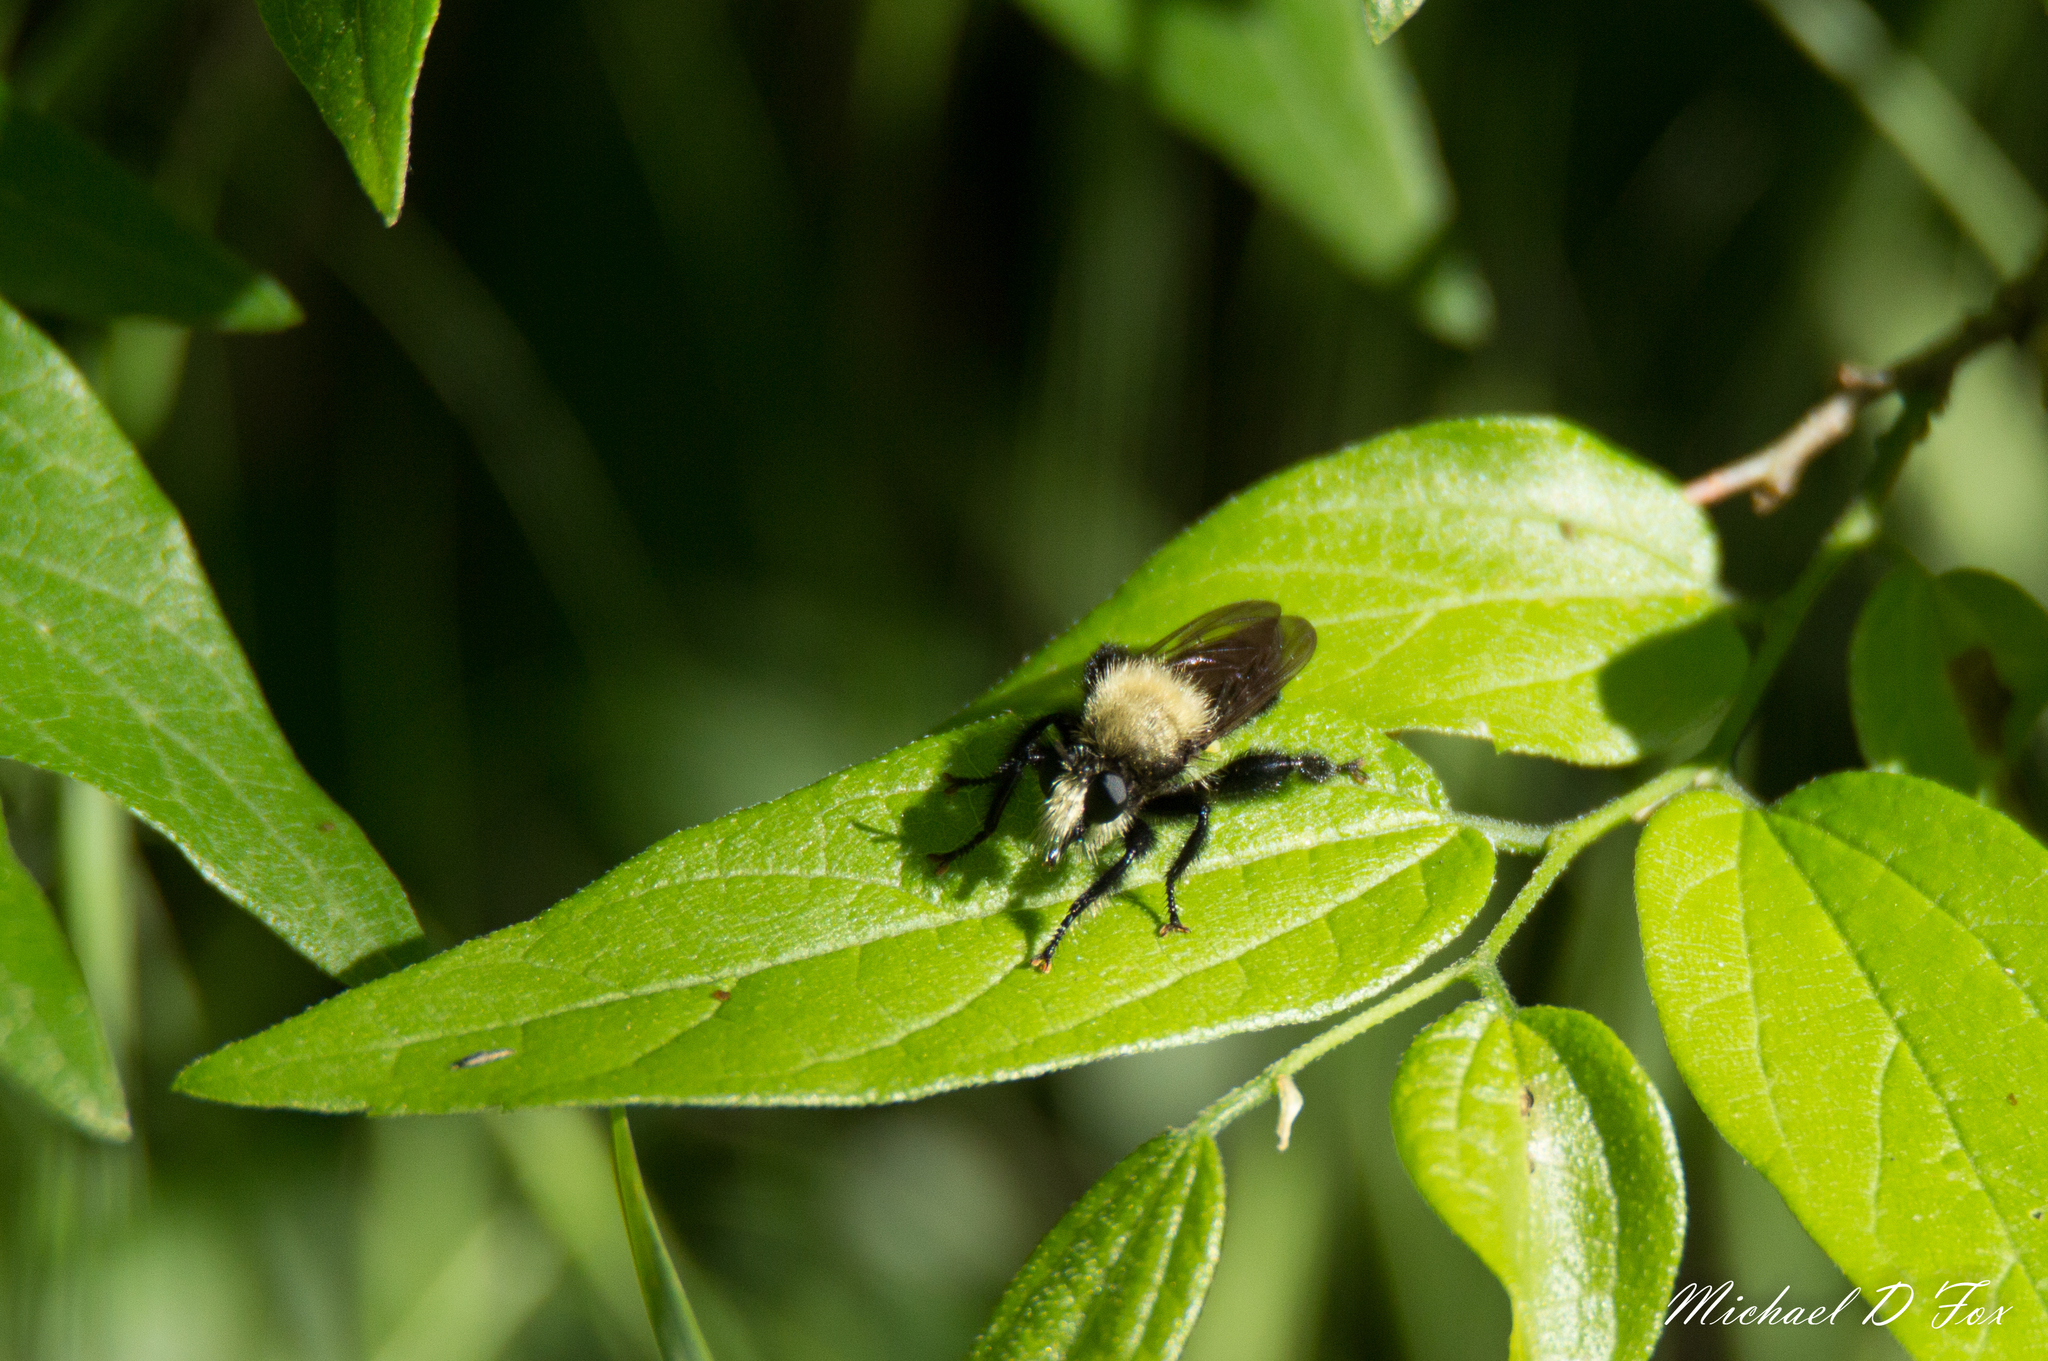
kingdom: Animalia
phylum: Arthropoda
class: Insecta
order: Diptera
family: Asilidae
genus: Laphria
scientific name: Laphria flavicollis
